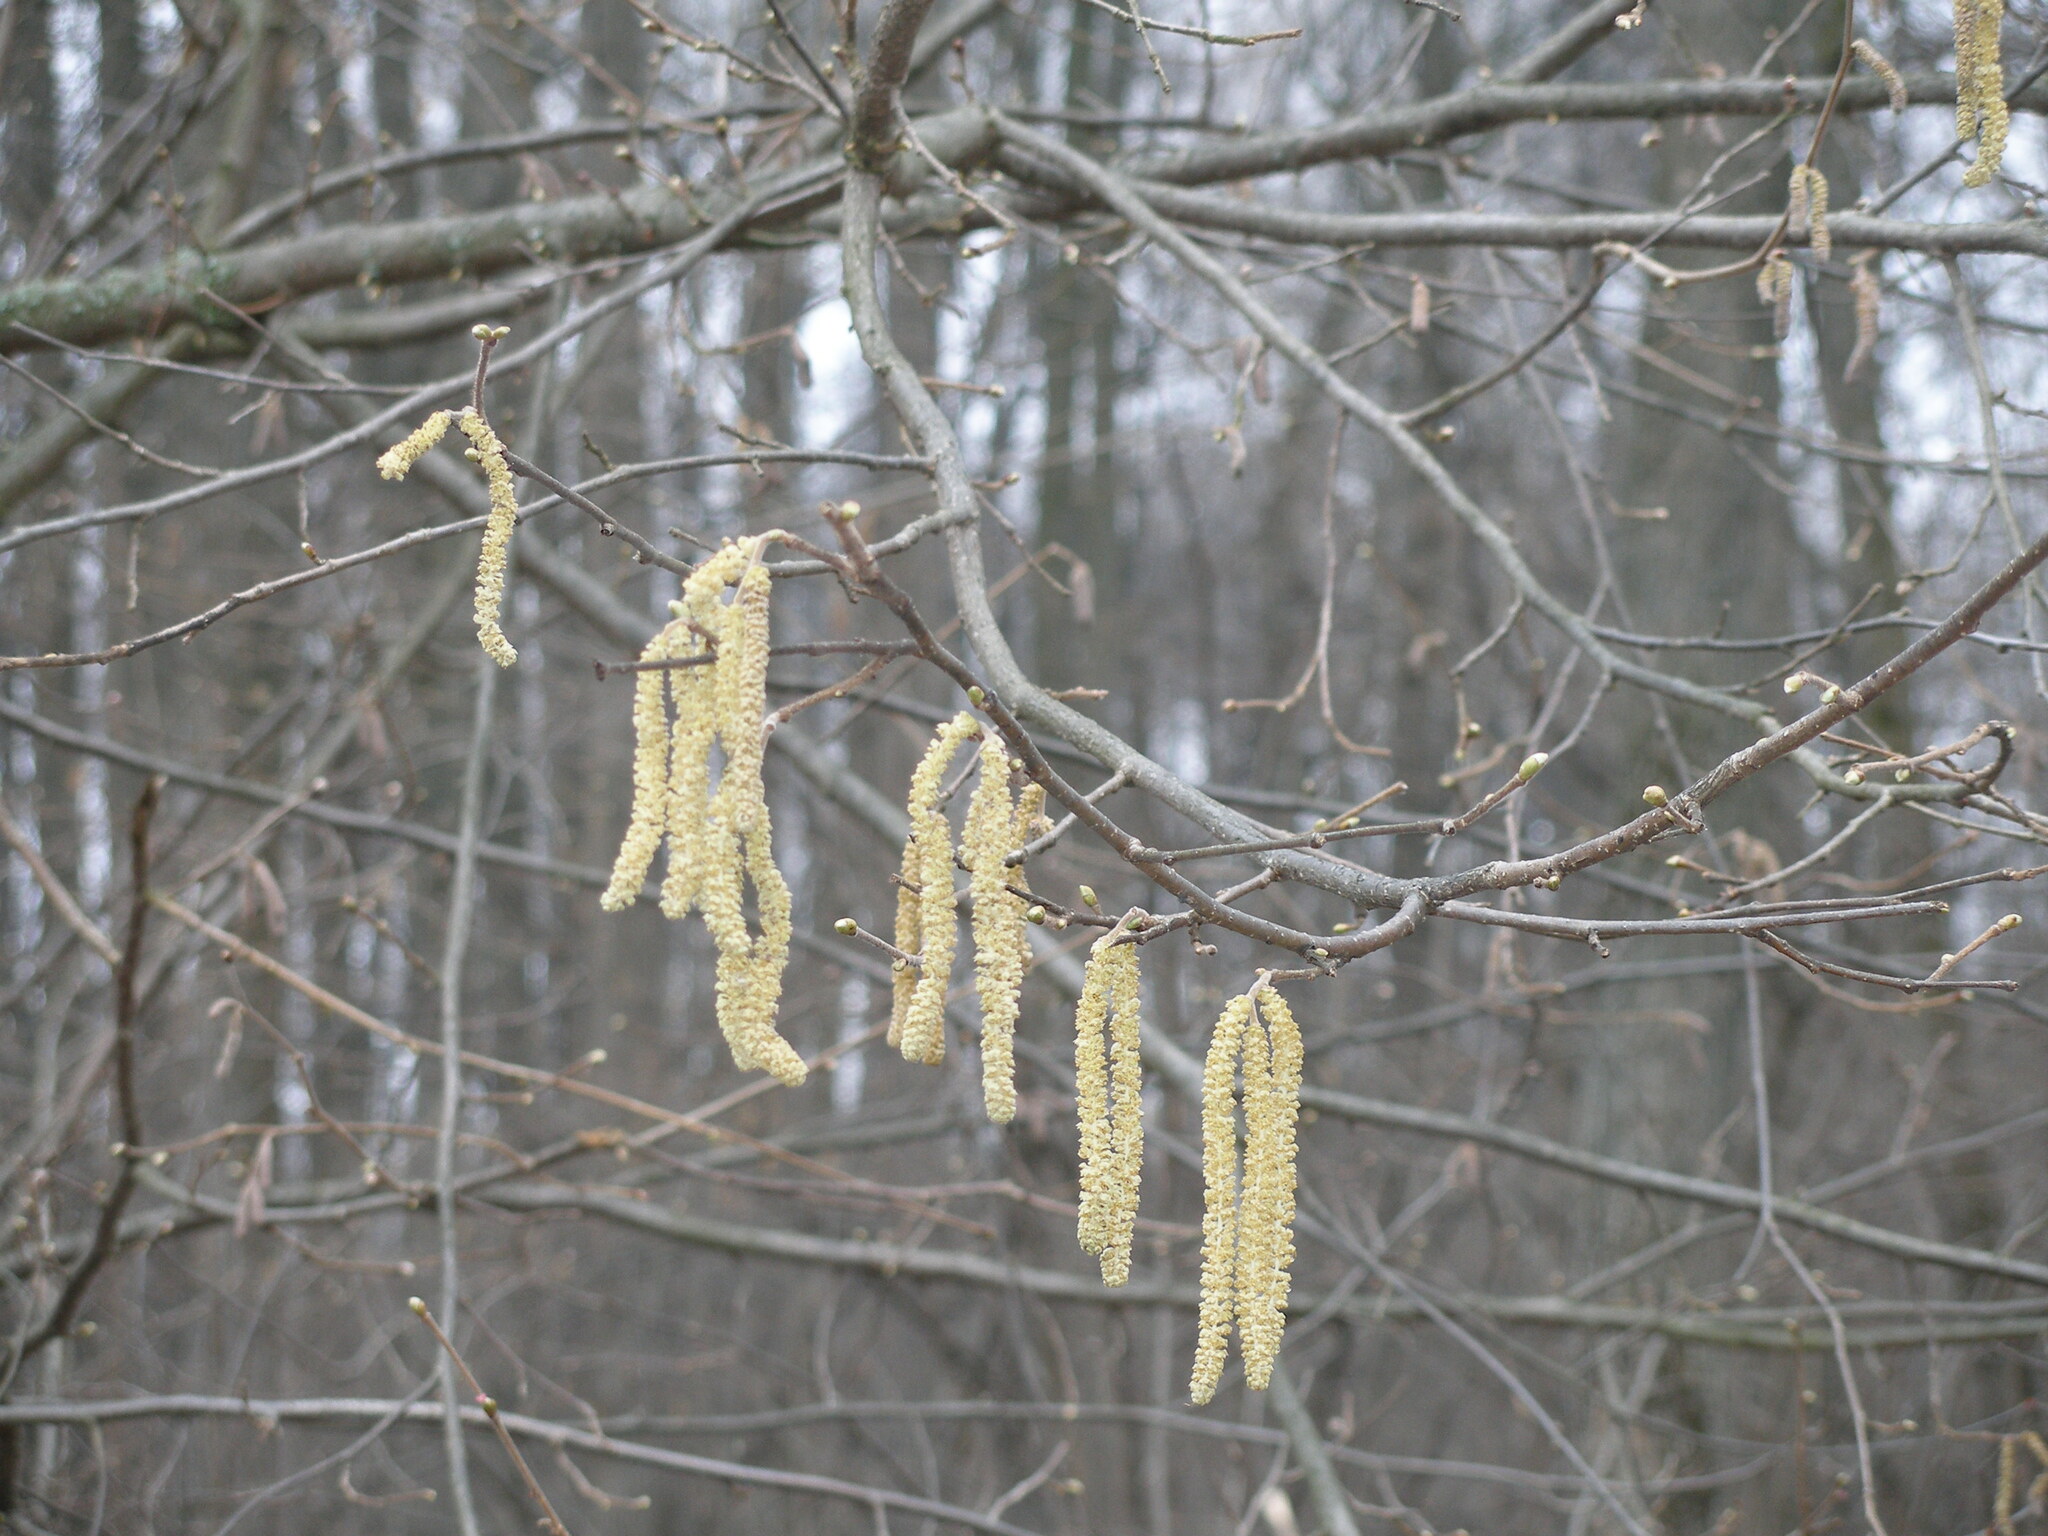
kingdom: Plantae
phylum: Tracheophyta
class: Magnoliopsida
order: Fagales
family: Betulaceae
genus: Corylus
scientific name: Corylus avellana
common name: European hazel
